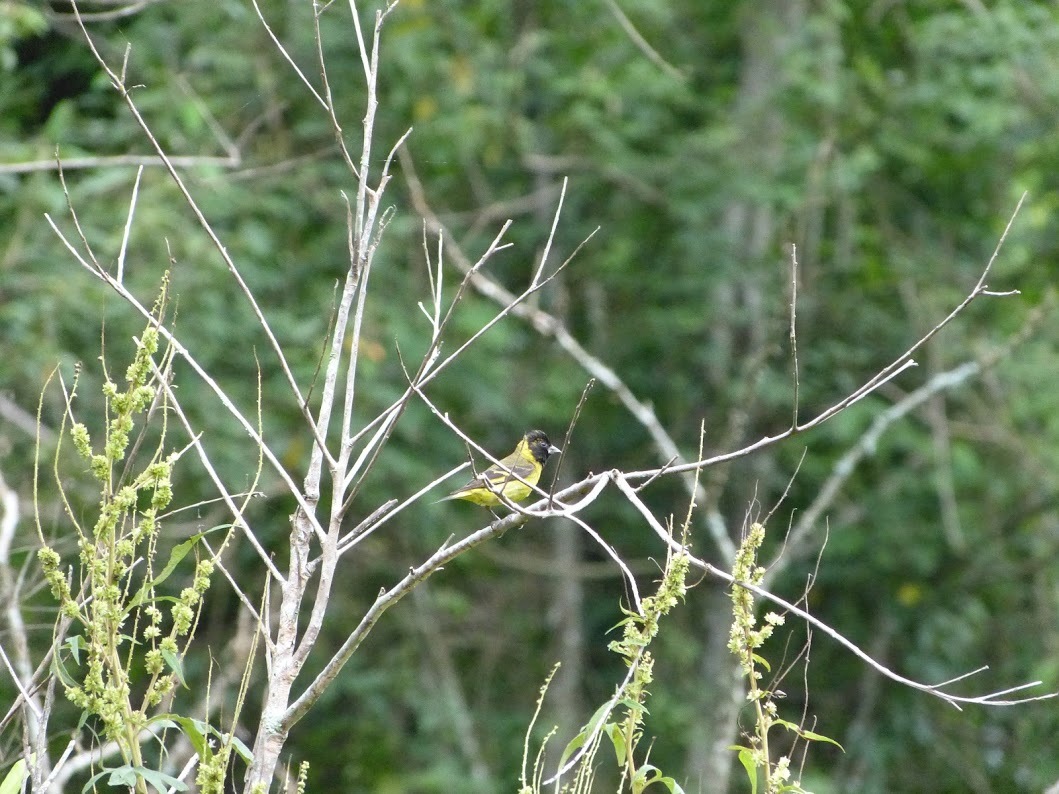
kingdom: Animalia
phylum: Chordata
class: Aves
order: Passeriformes
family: Fringillidae
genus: Spinus
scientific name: Spinus magellanicus
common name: Hooded siskin
